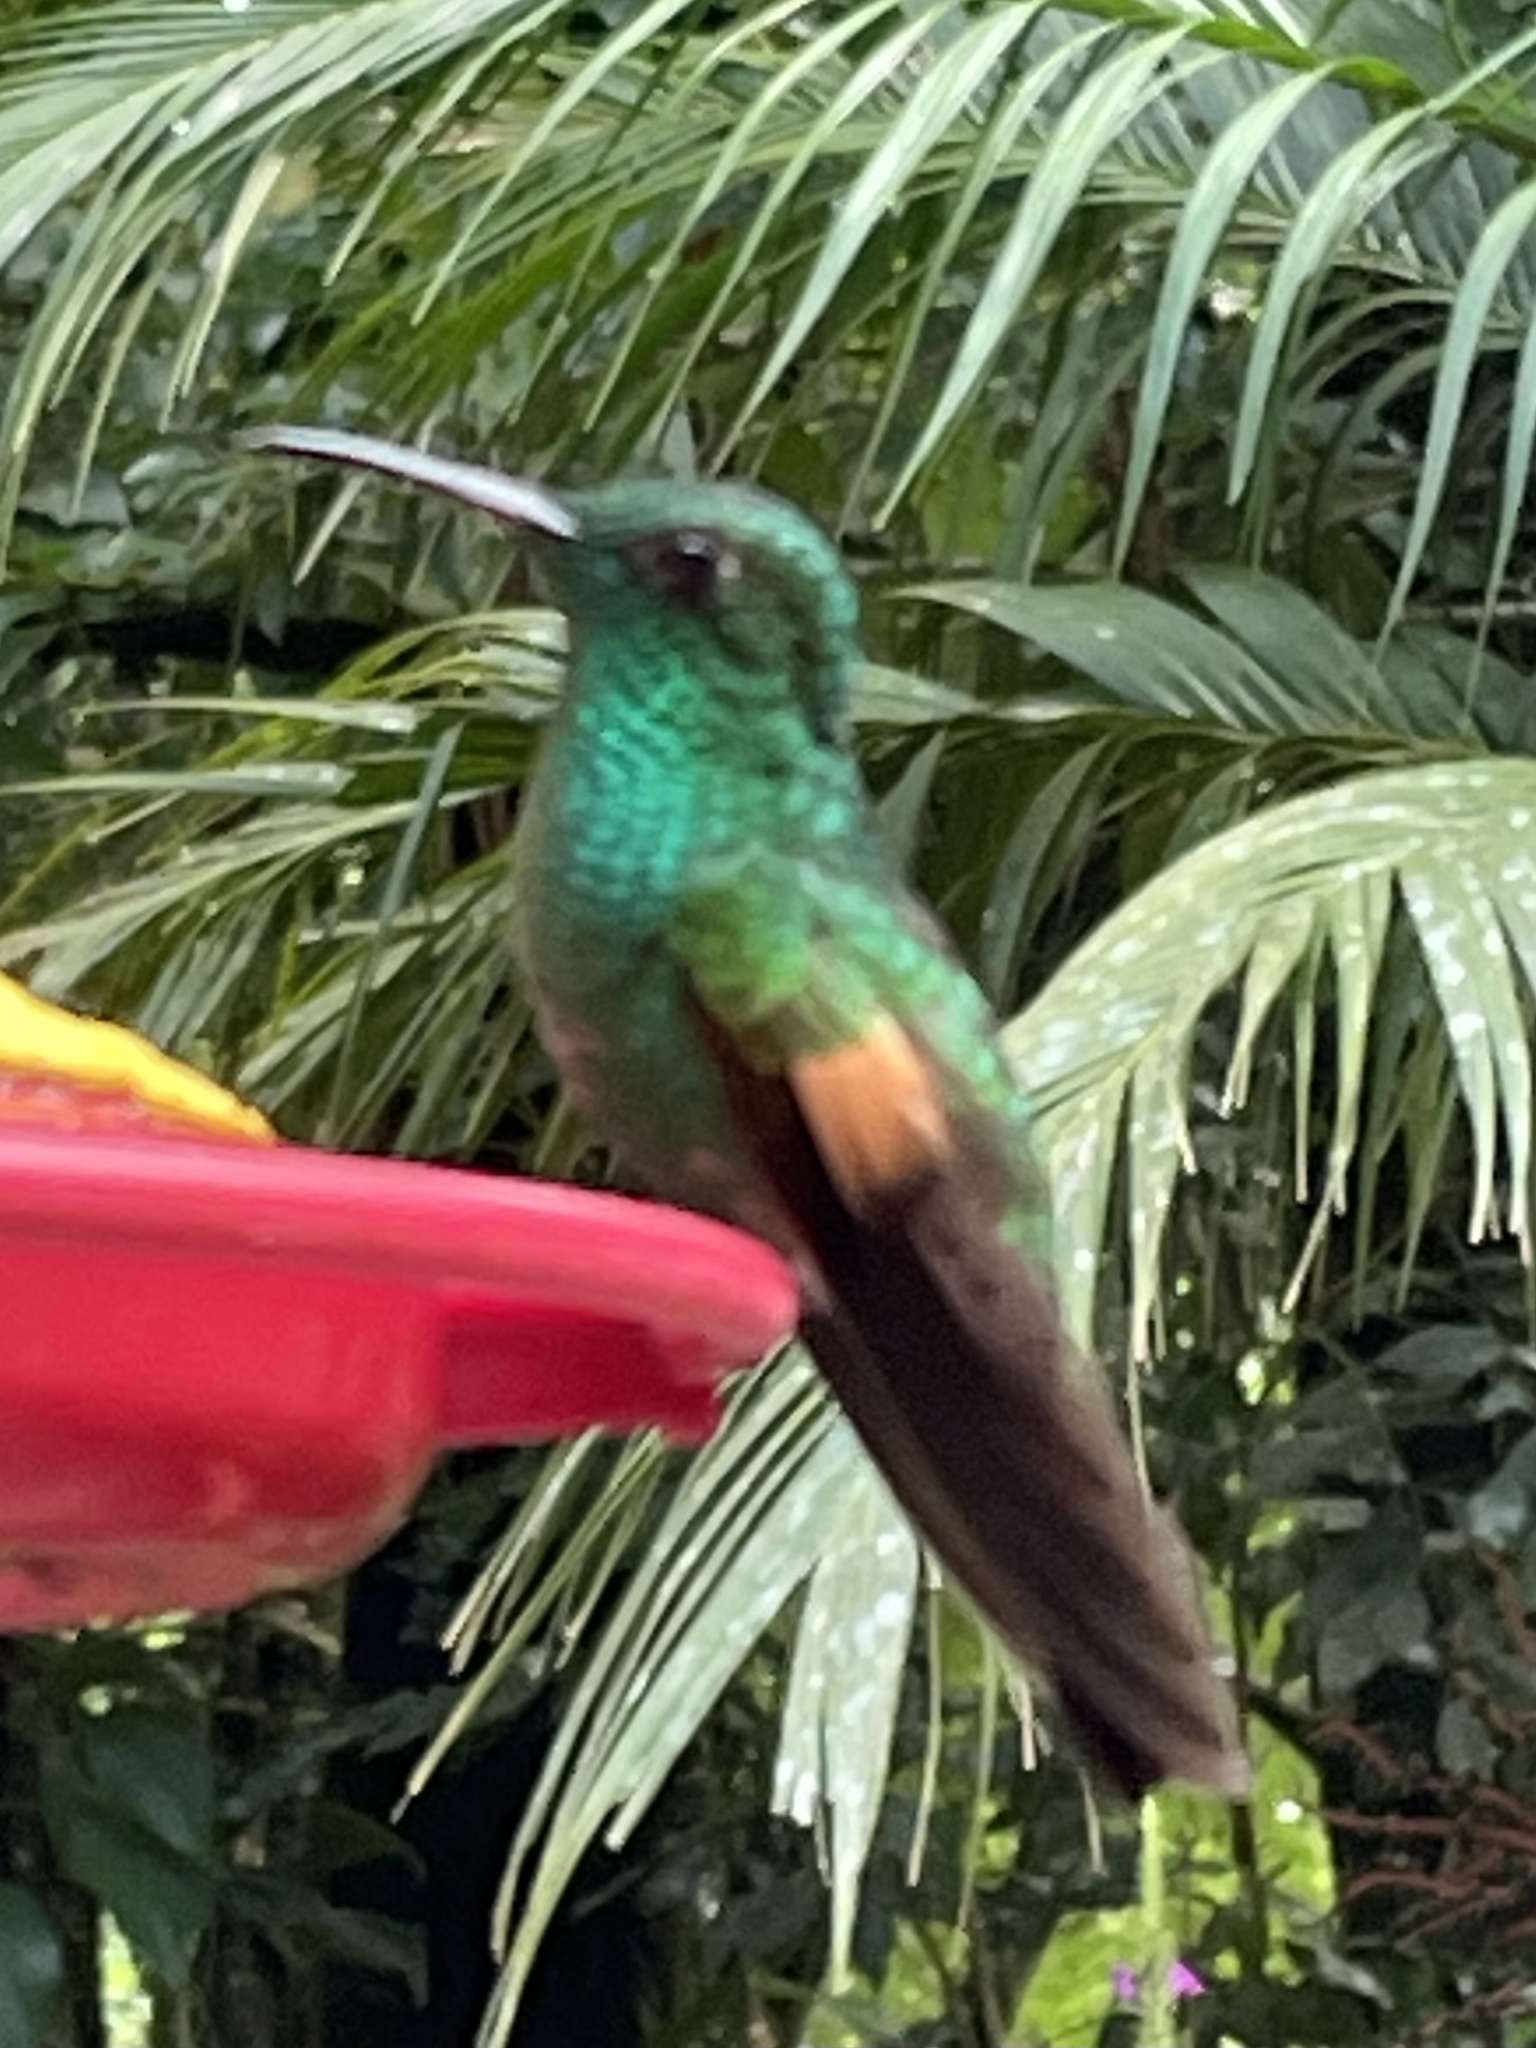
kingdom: Animalia
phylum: Chordata
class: Aves
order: Apodiformes
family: Trochilidae
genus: Eupherusa
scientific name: Eupherusa eximia
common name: Stripe-tailed hummingbird
